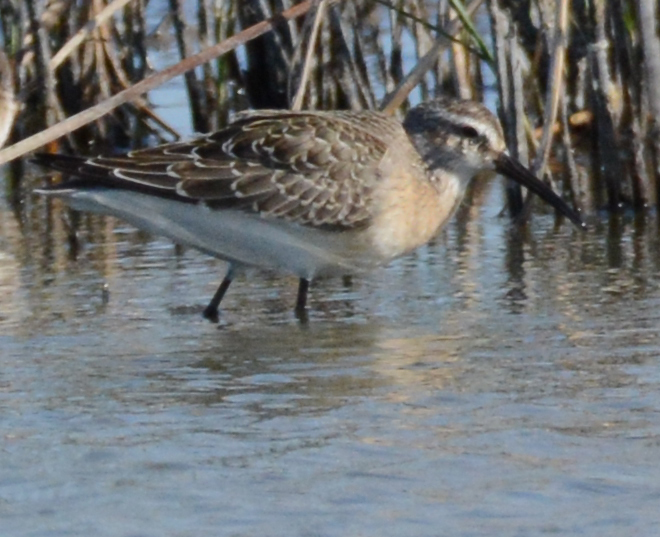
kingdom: Animalia
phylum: Chordata
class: Aves
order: Charadriiformes
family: Scolopacidae
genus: Calidris
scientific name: Calidris ferruginea
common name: Curlew sandpiper
